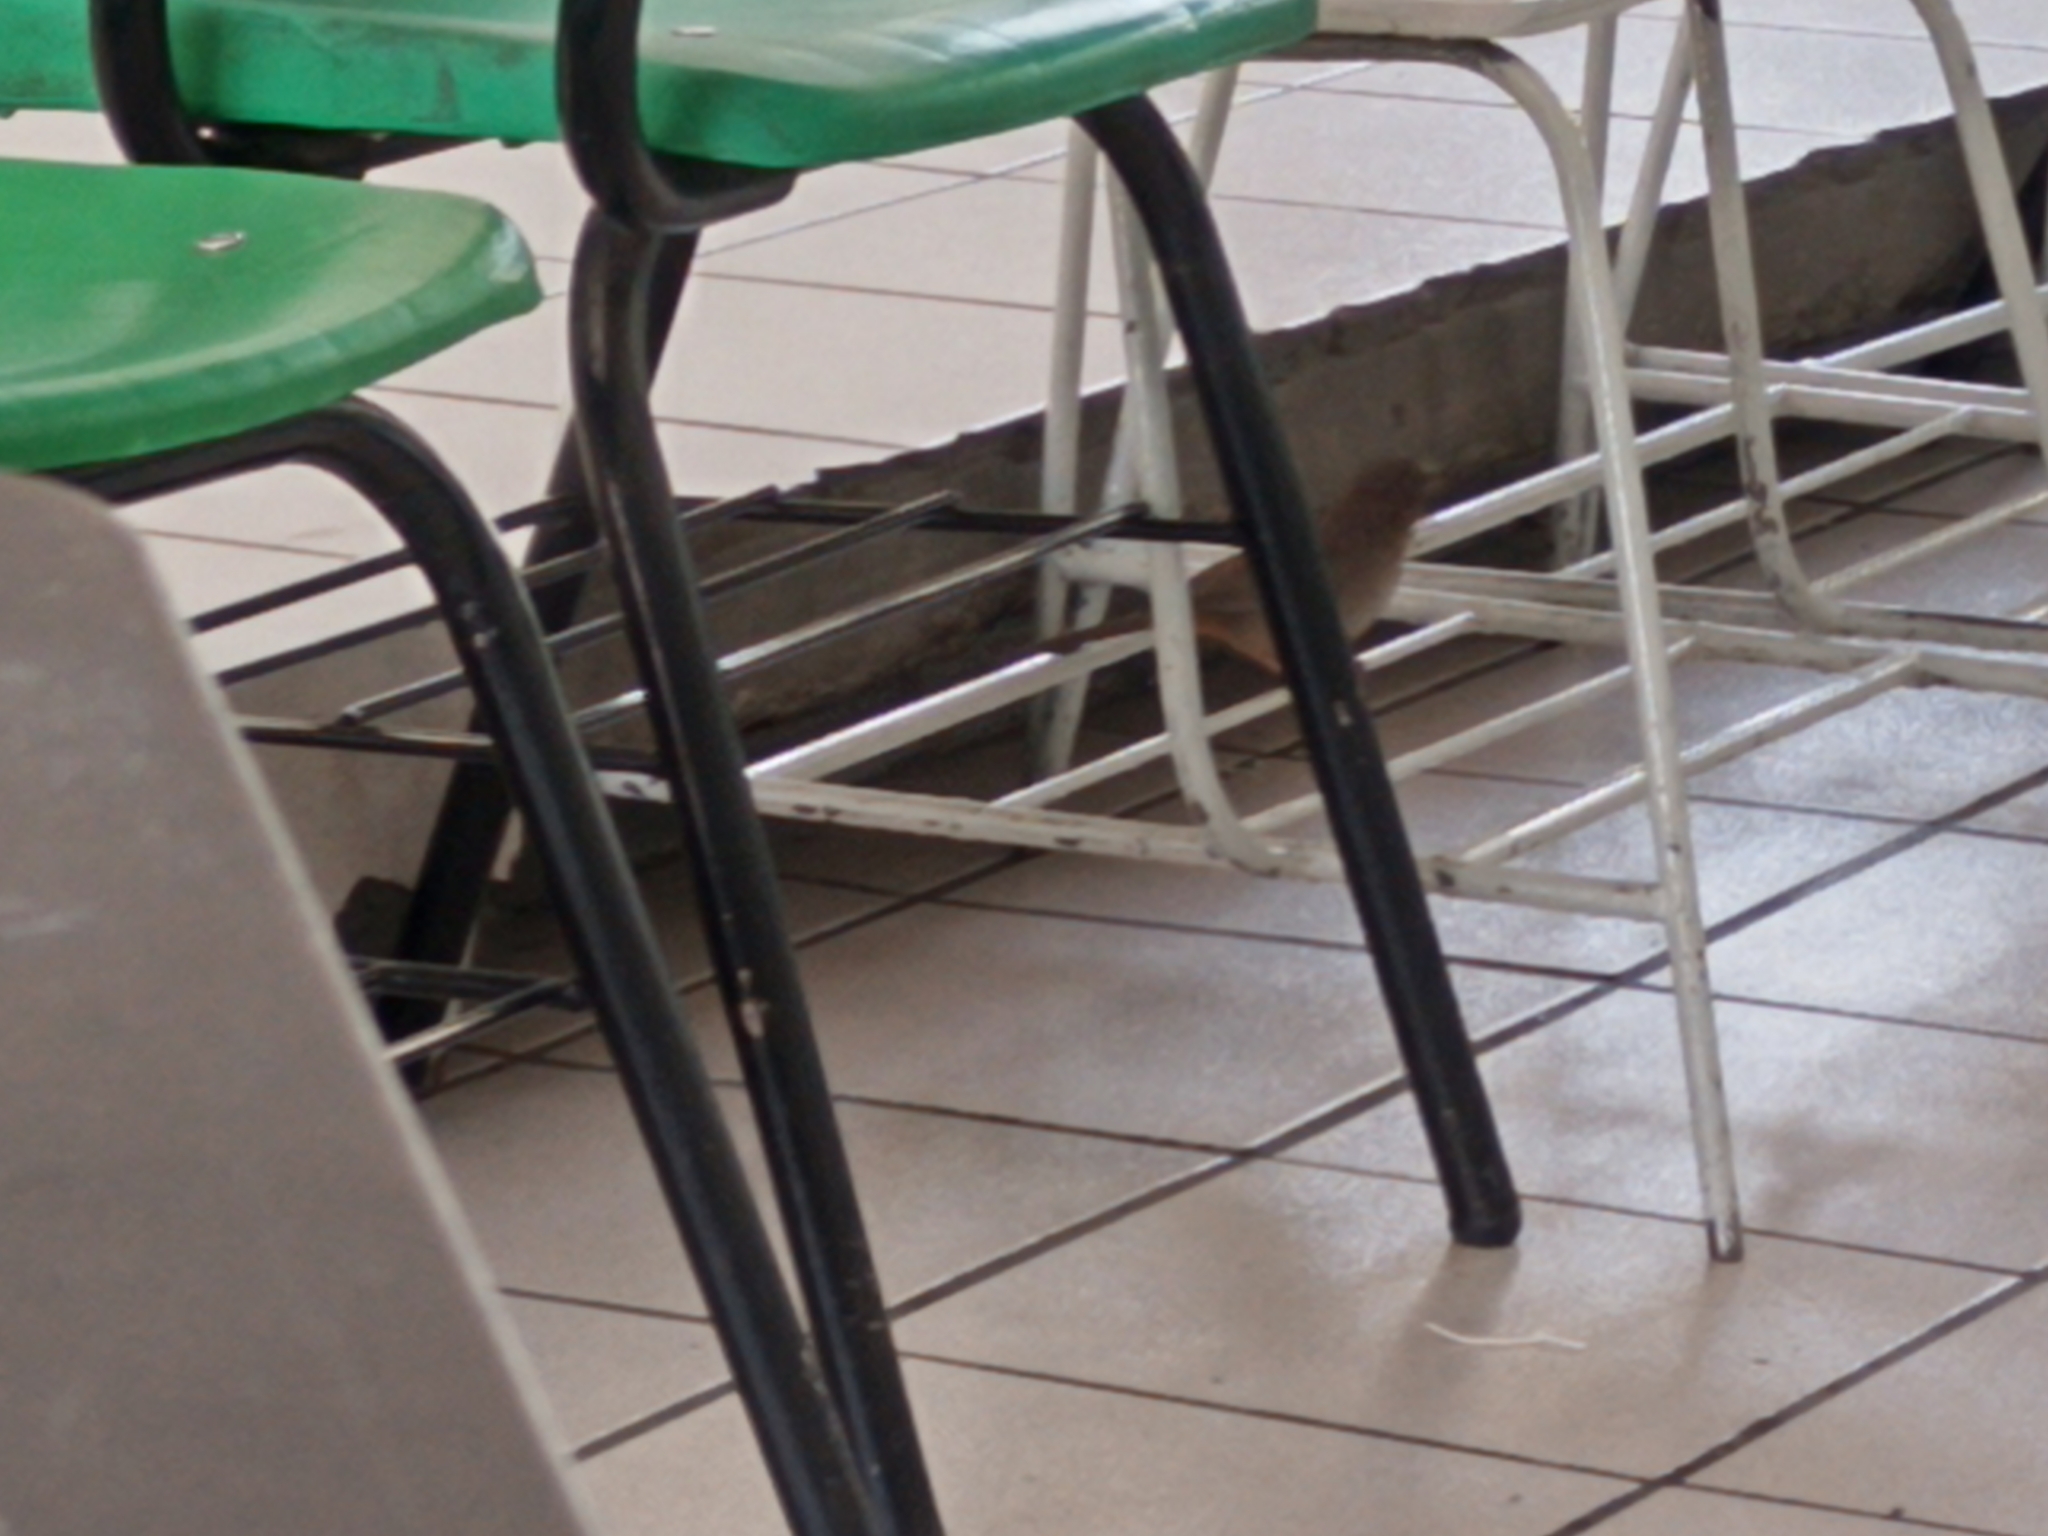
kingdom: Animalia
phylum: Chordata
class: Aves
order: Passeriformes
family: Passerellidae
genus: Melozone
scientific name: Melozone fusca
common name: Canyon towhee
